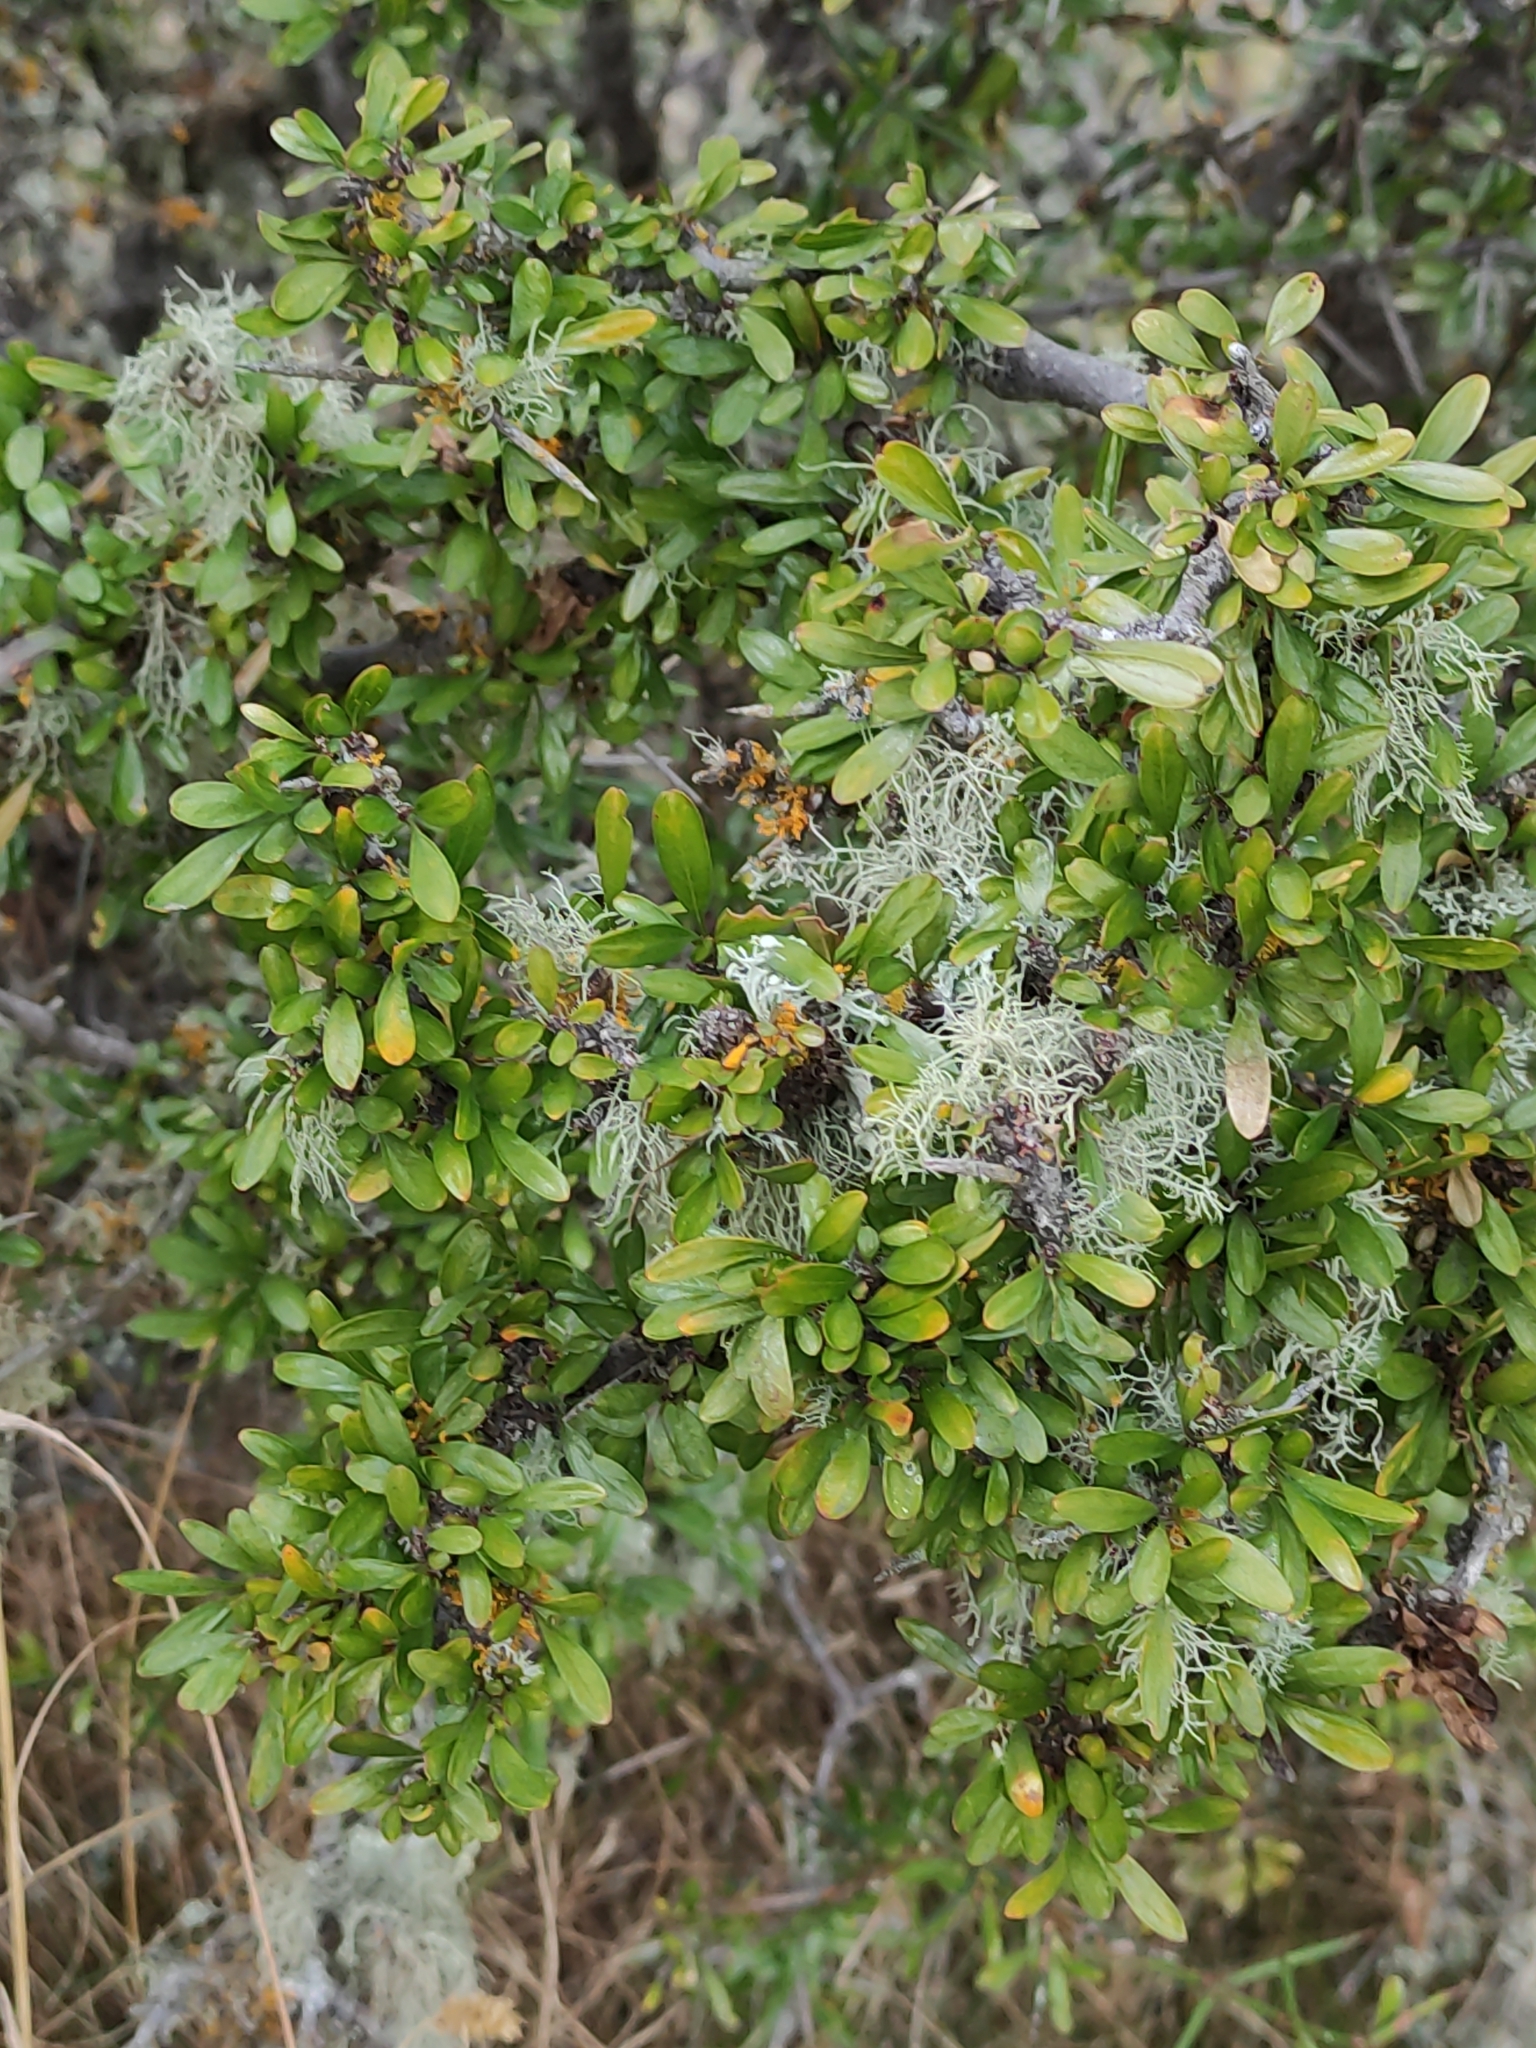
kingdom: Plantae
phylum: Tracheophyta
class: Magnoliopsida
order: Rosales
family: Rhamnaceae
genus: Discaria
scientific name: Discaria toumatou
